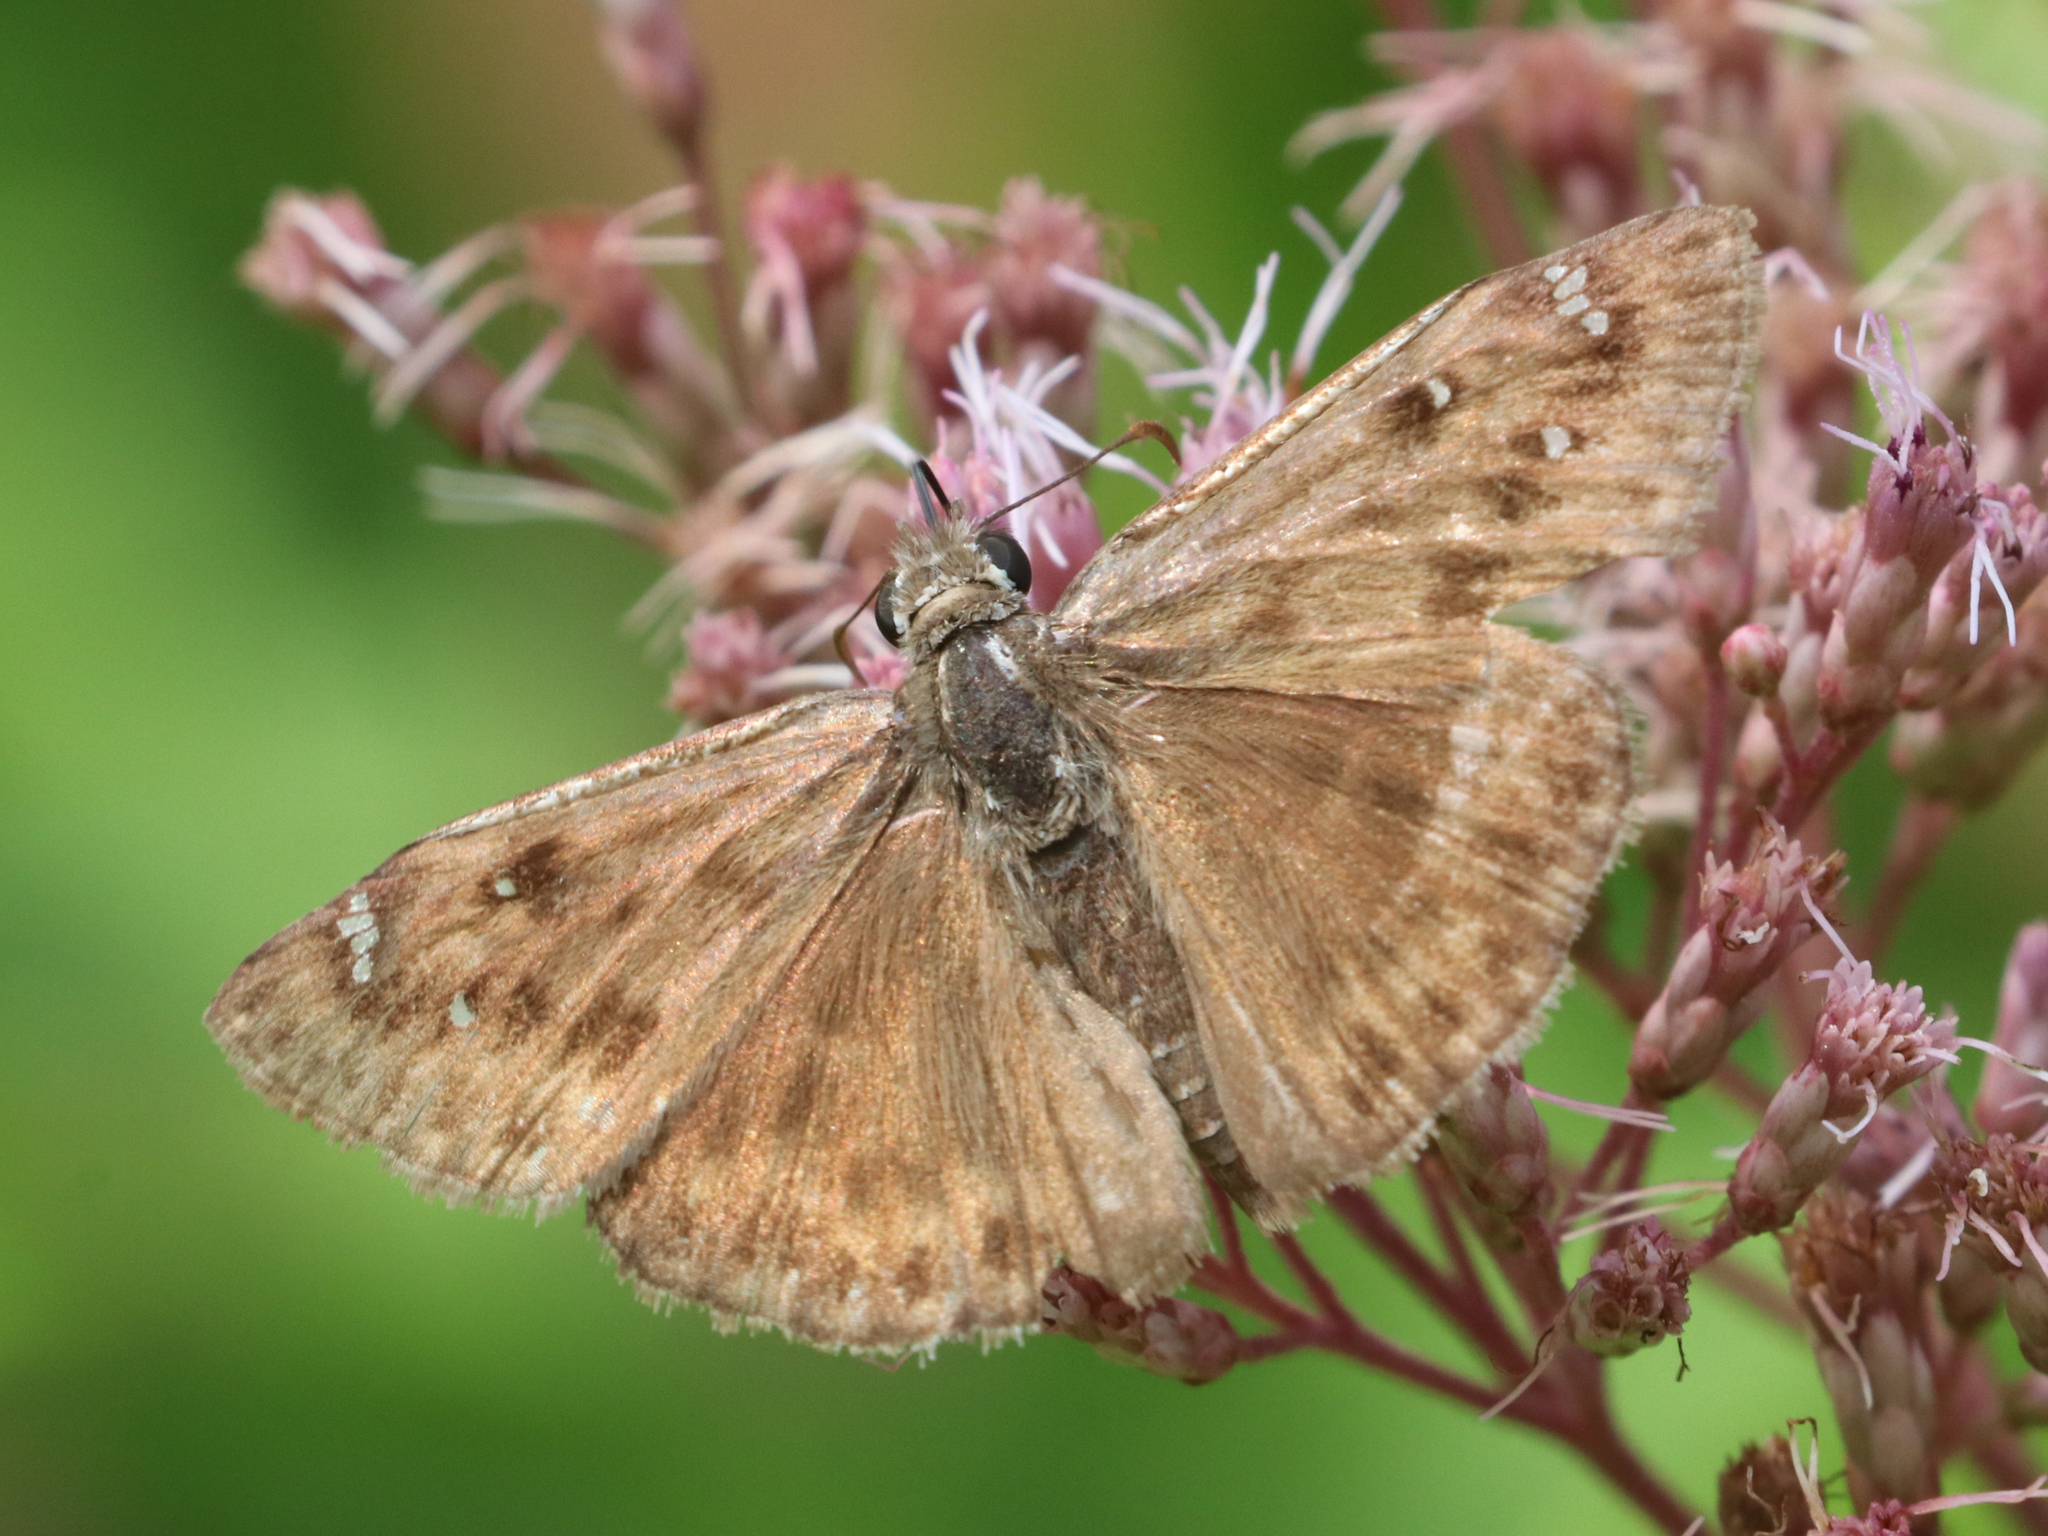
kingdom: Animalia
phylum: Arthropoda
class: Insecta
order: Lepidoptera
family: Hesperiidae
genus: Erynnis
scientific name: Erynnis horatius
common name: Horace's duskywing
